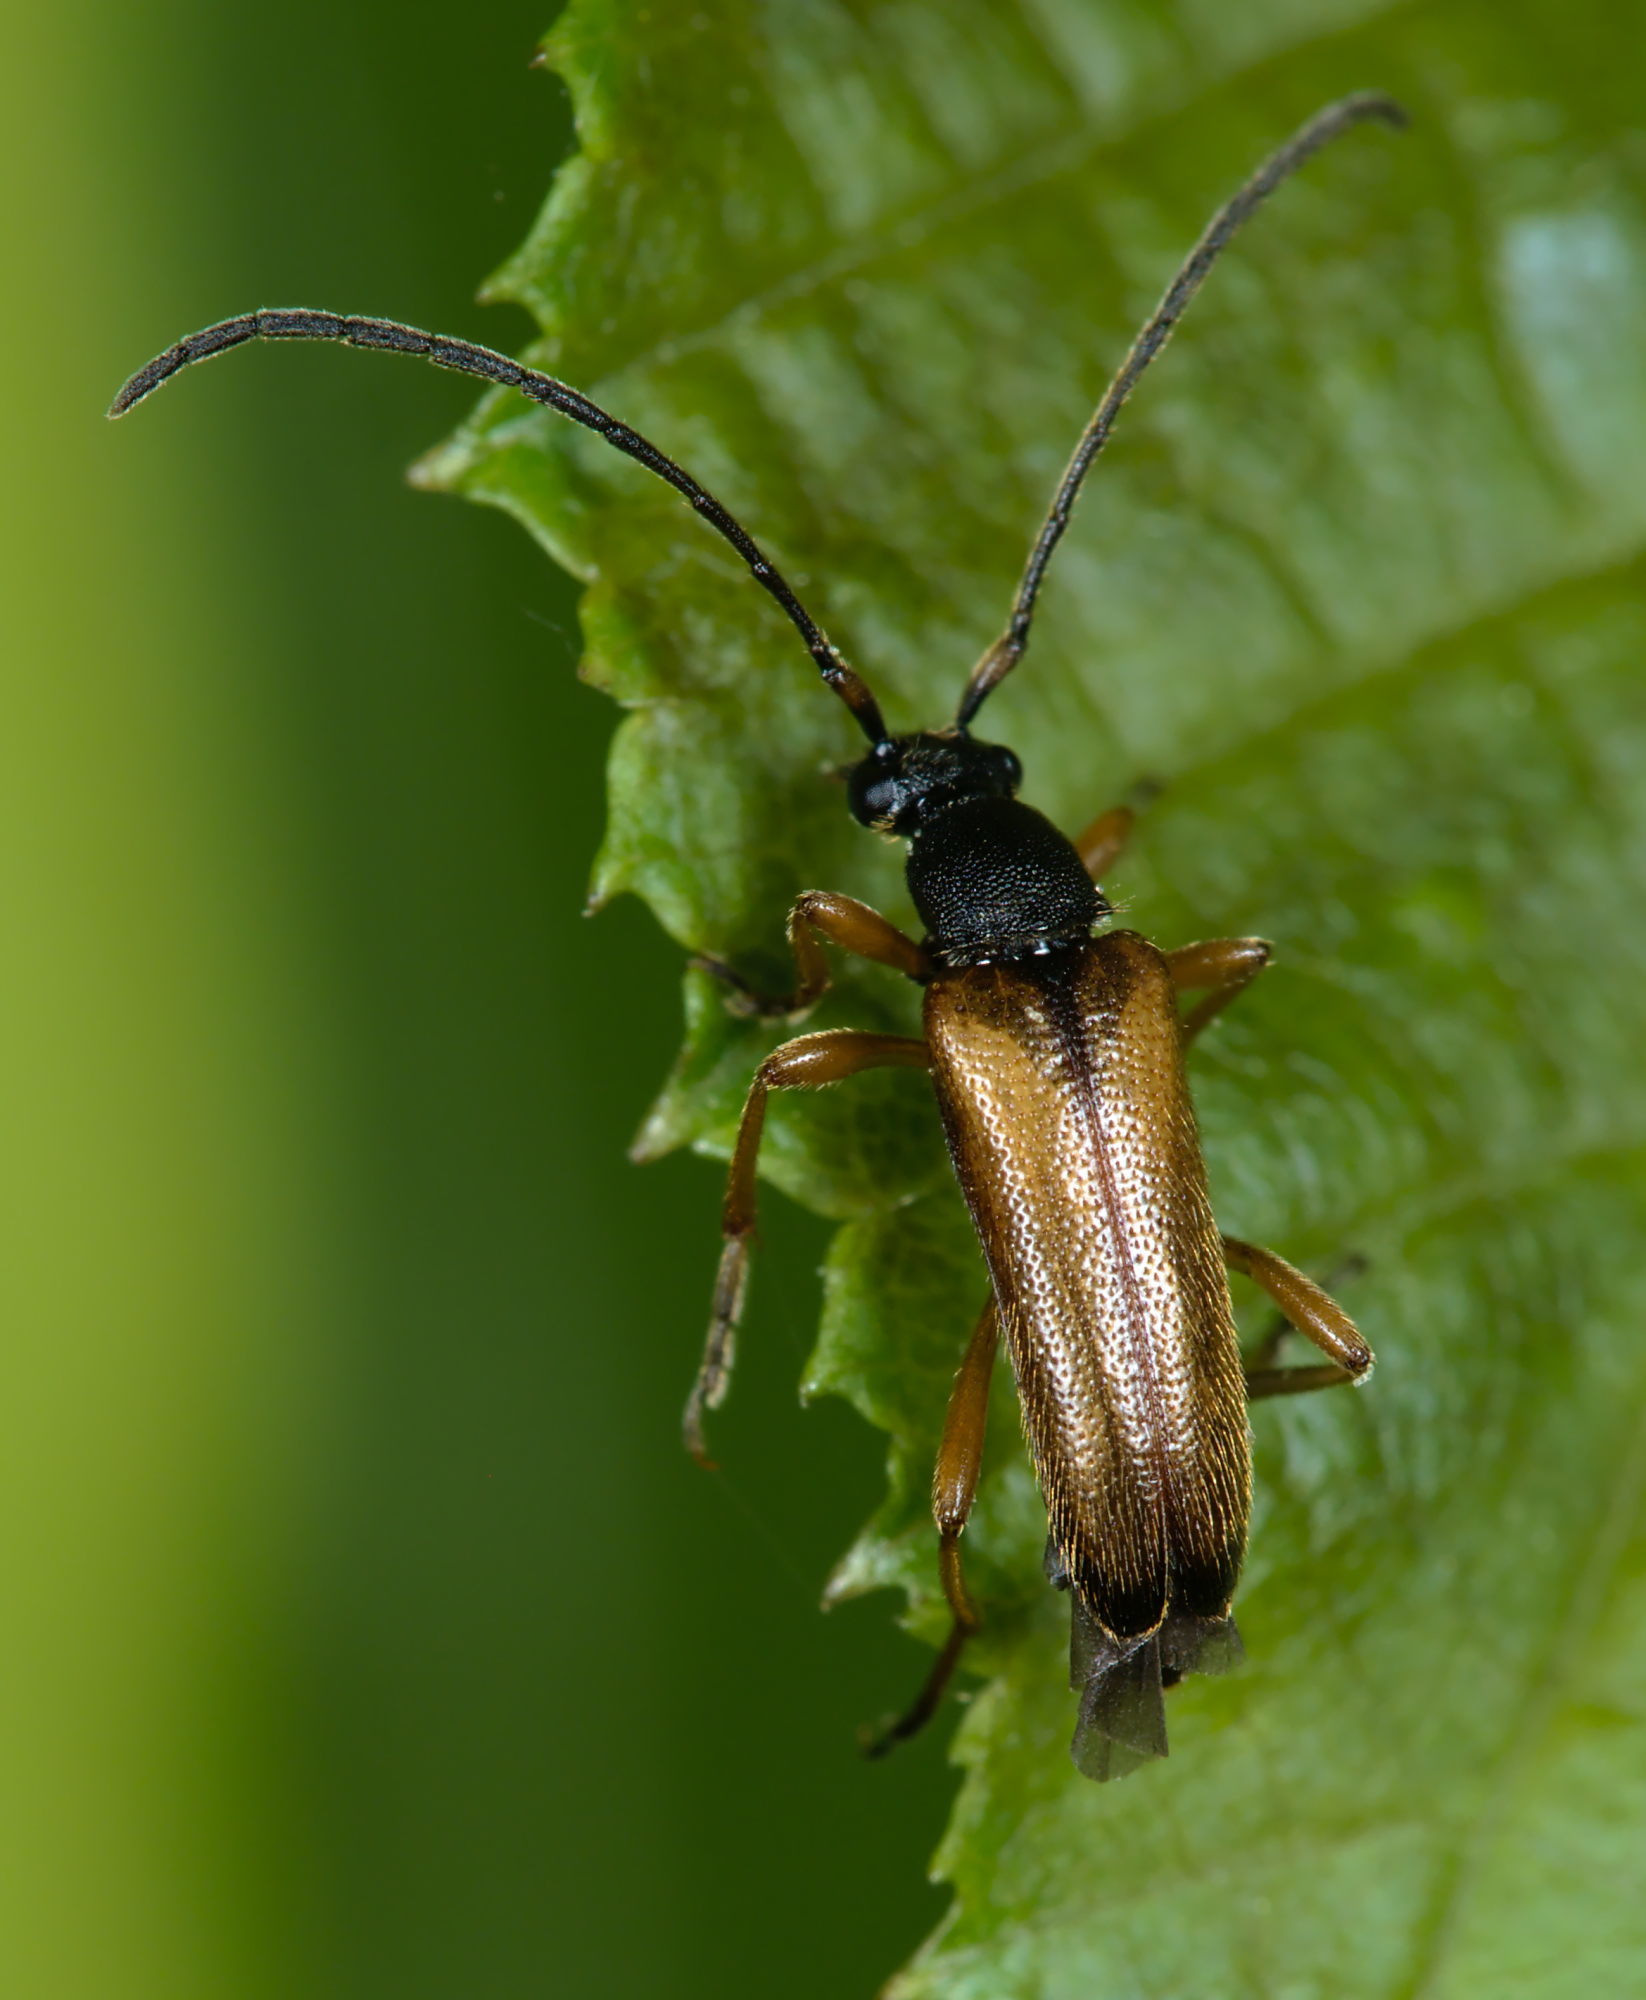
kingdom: Animalia
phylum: Arthropoda
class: Insecta
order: Coleoptera
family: Cerambycidae
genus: Alosterna
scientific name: Alosterna tabacicolor
